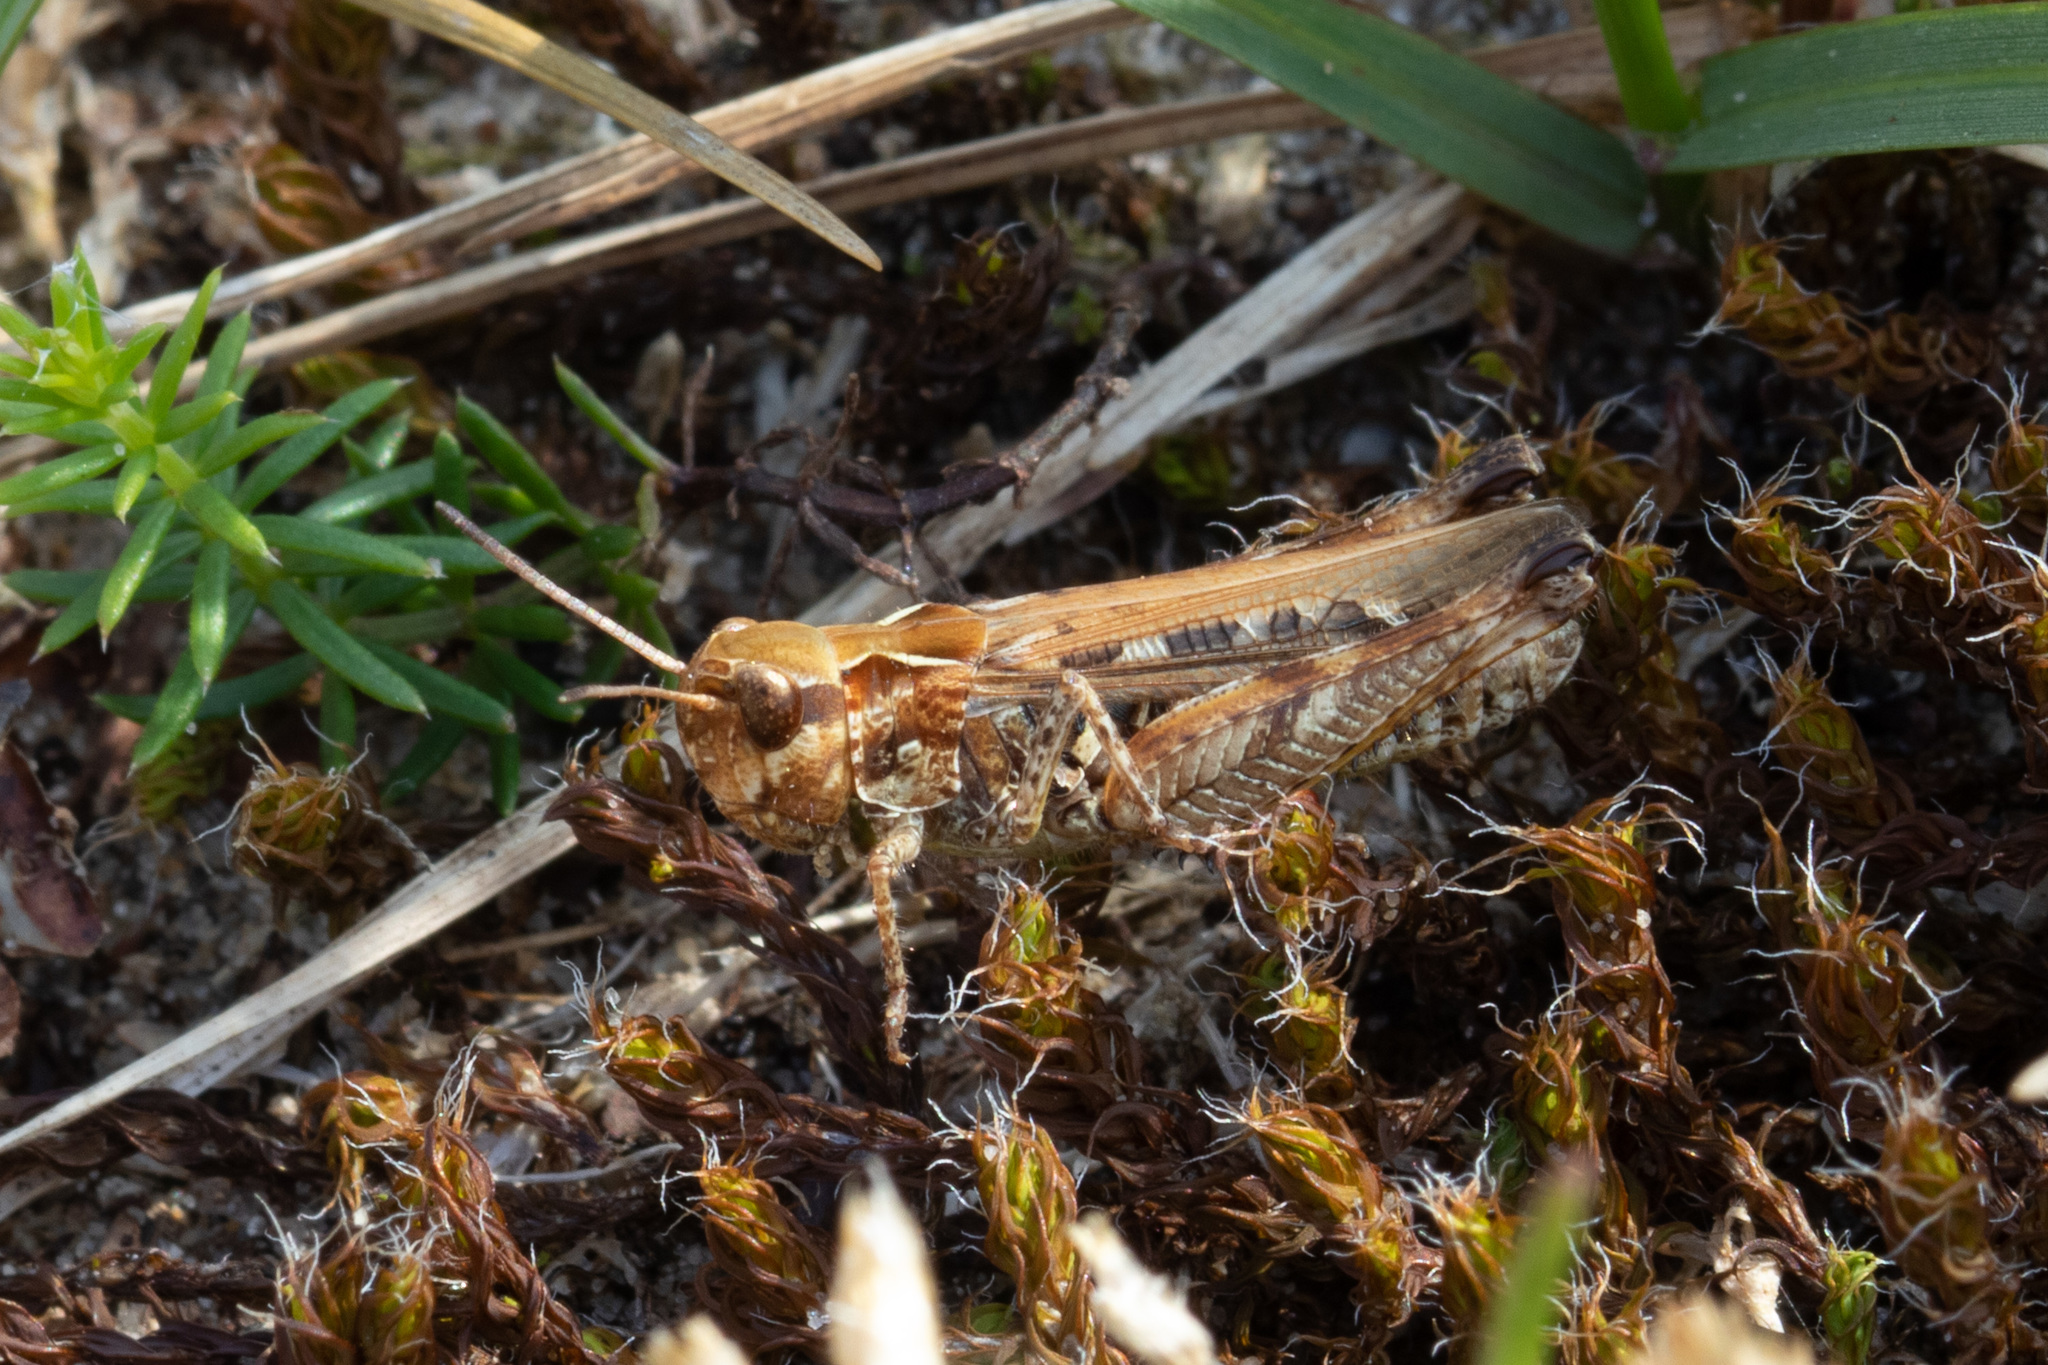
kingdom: Animalia
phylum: Arthropoda
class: Insecta
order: Orthoptera
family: Acrididae
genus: Myrmeleotettix
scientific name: Myrmeleotettix maculatus
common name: Mottled grasshopper
